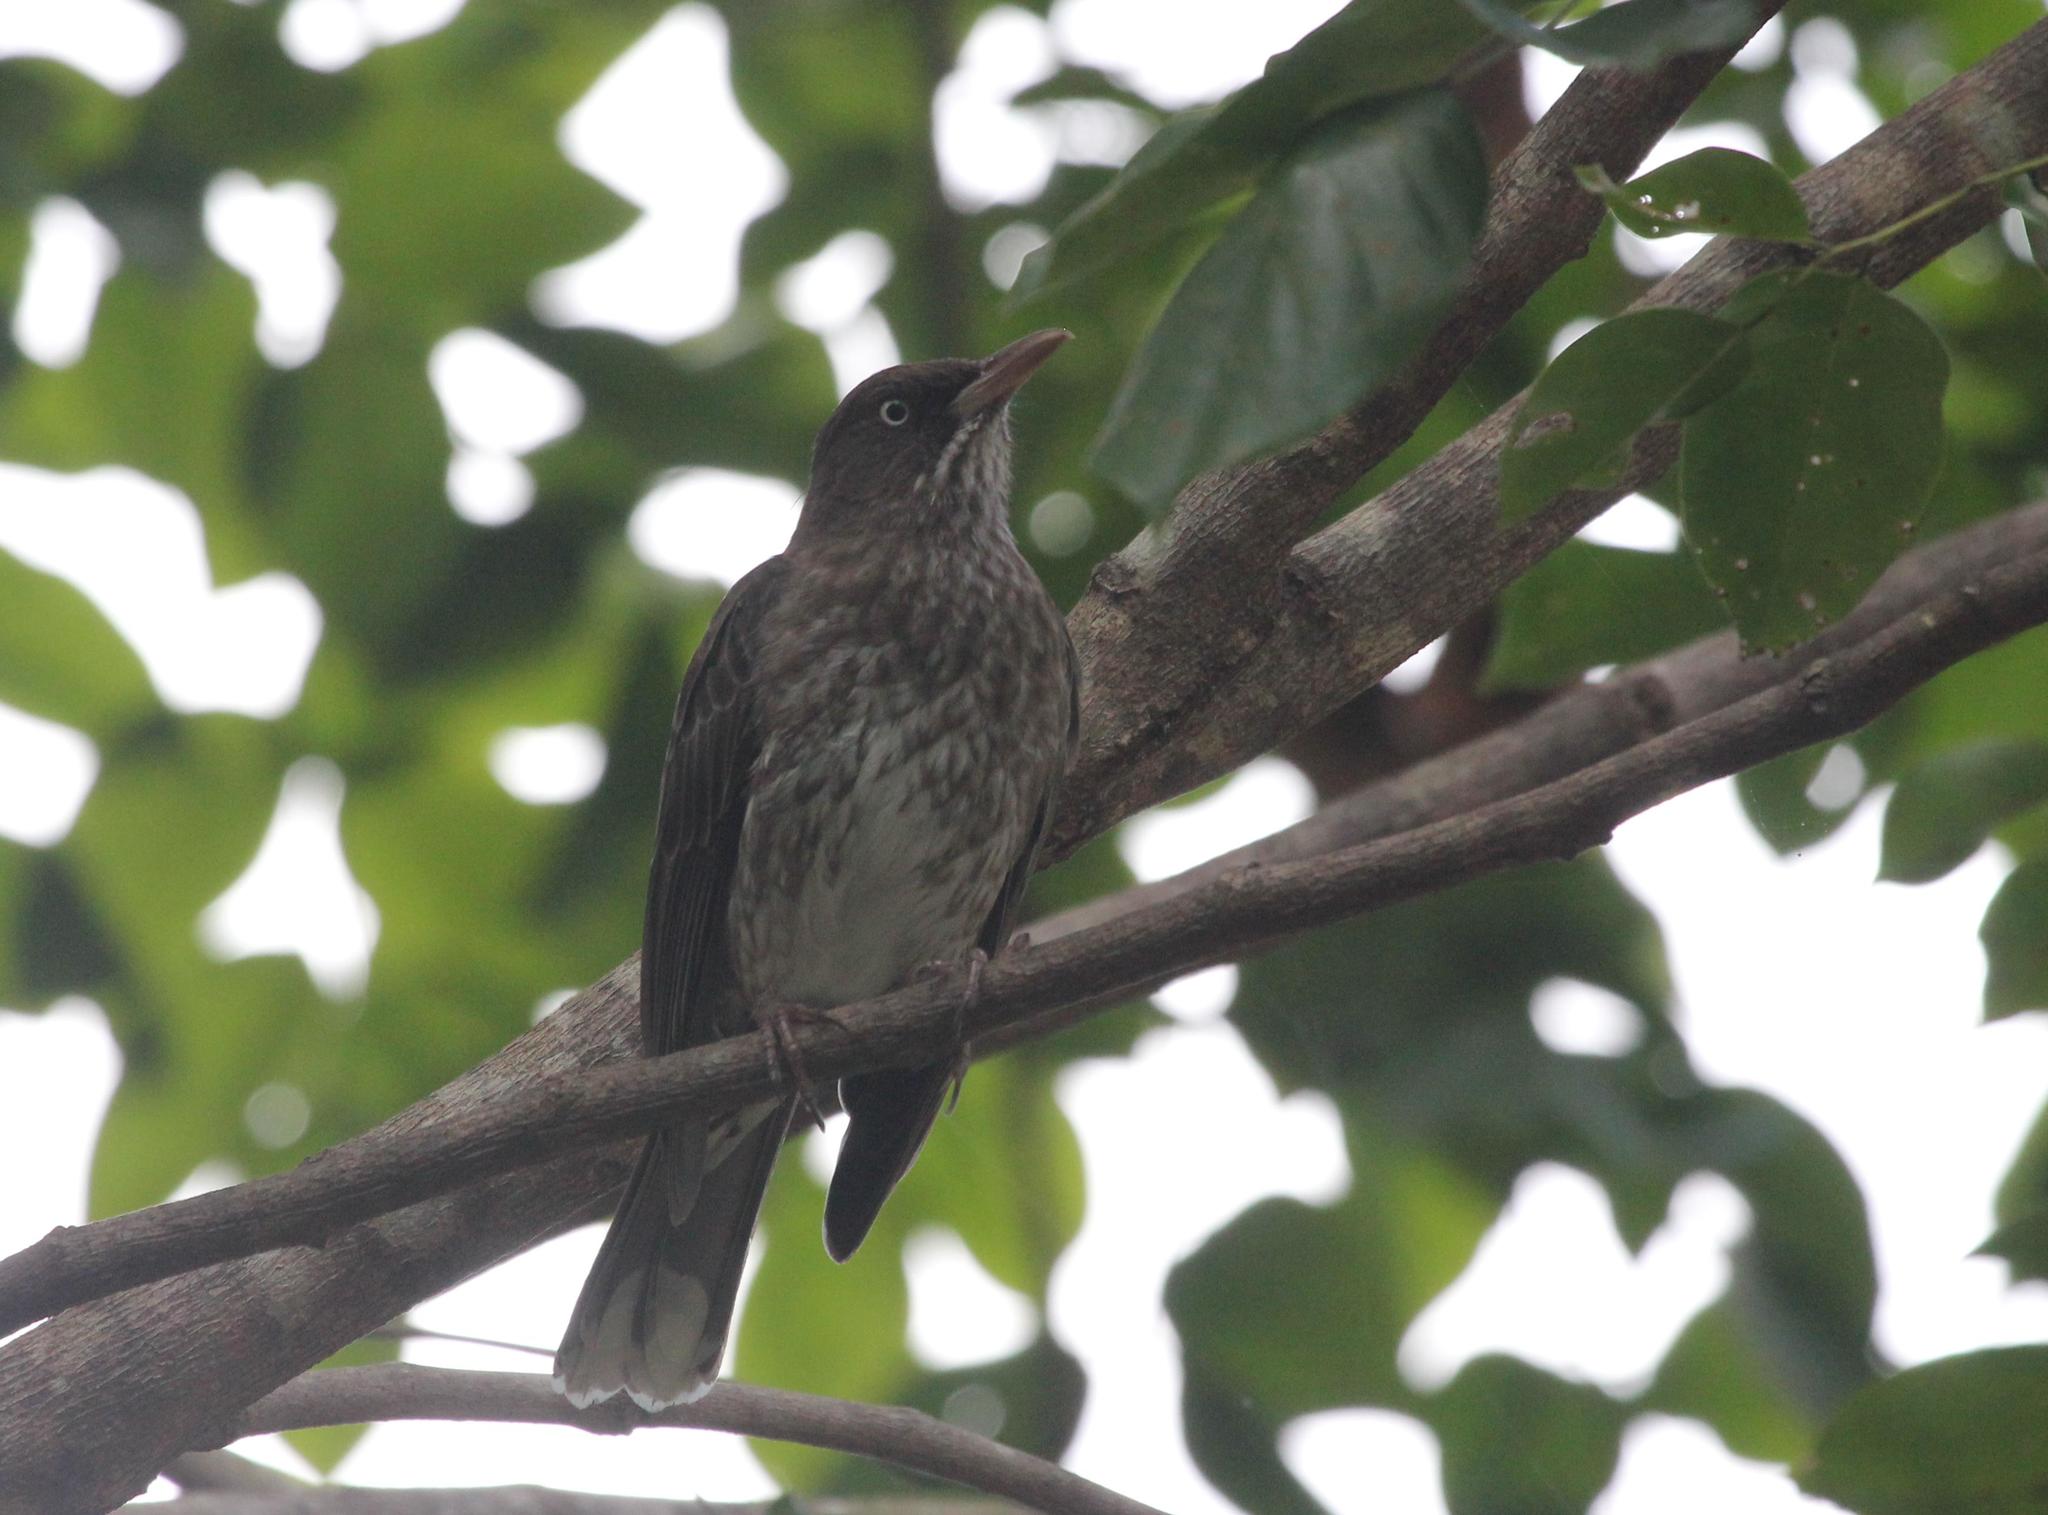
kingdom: Animalia
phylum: Chordata
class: Aves
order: Passeriformes
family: Mimidae
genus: Margarops
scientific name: Margarops fuscatus
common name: Pearly-eyed thrasher
